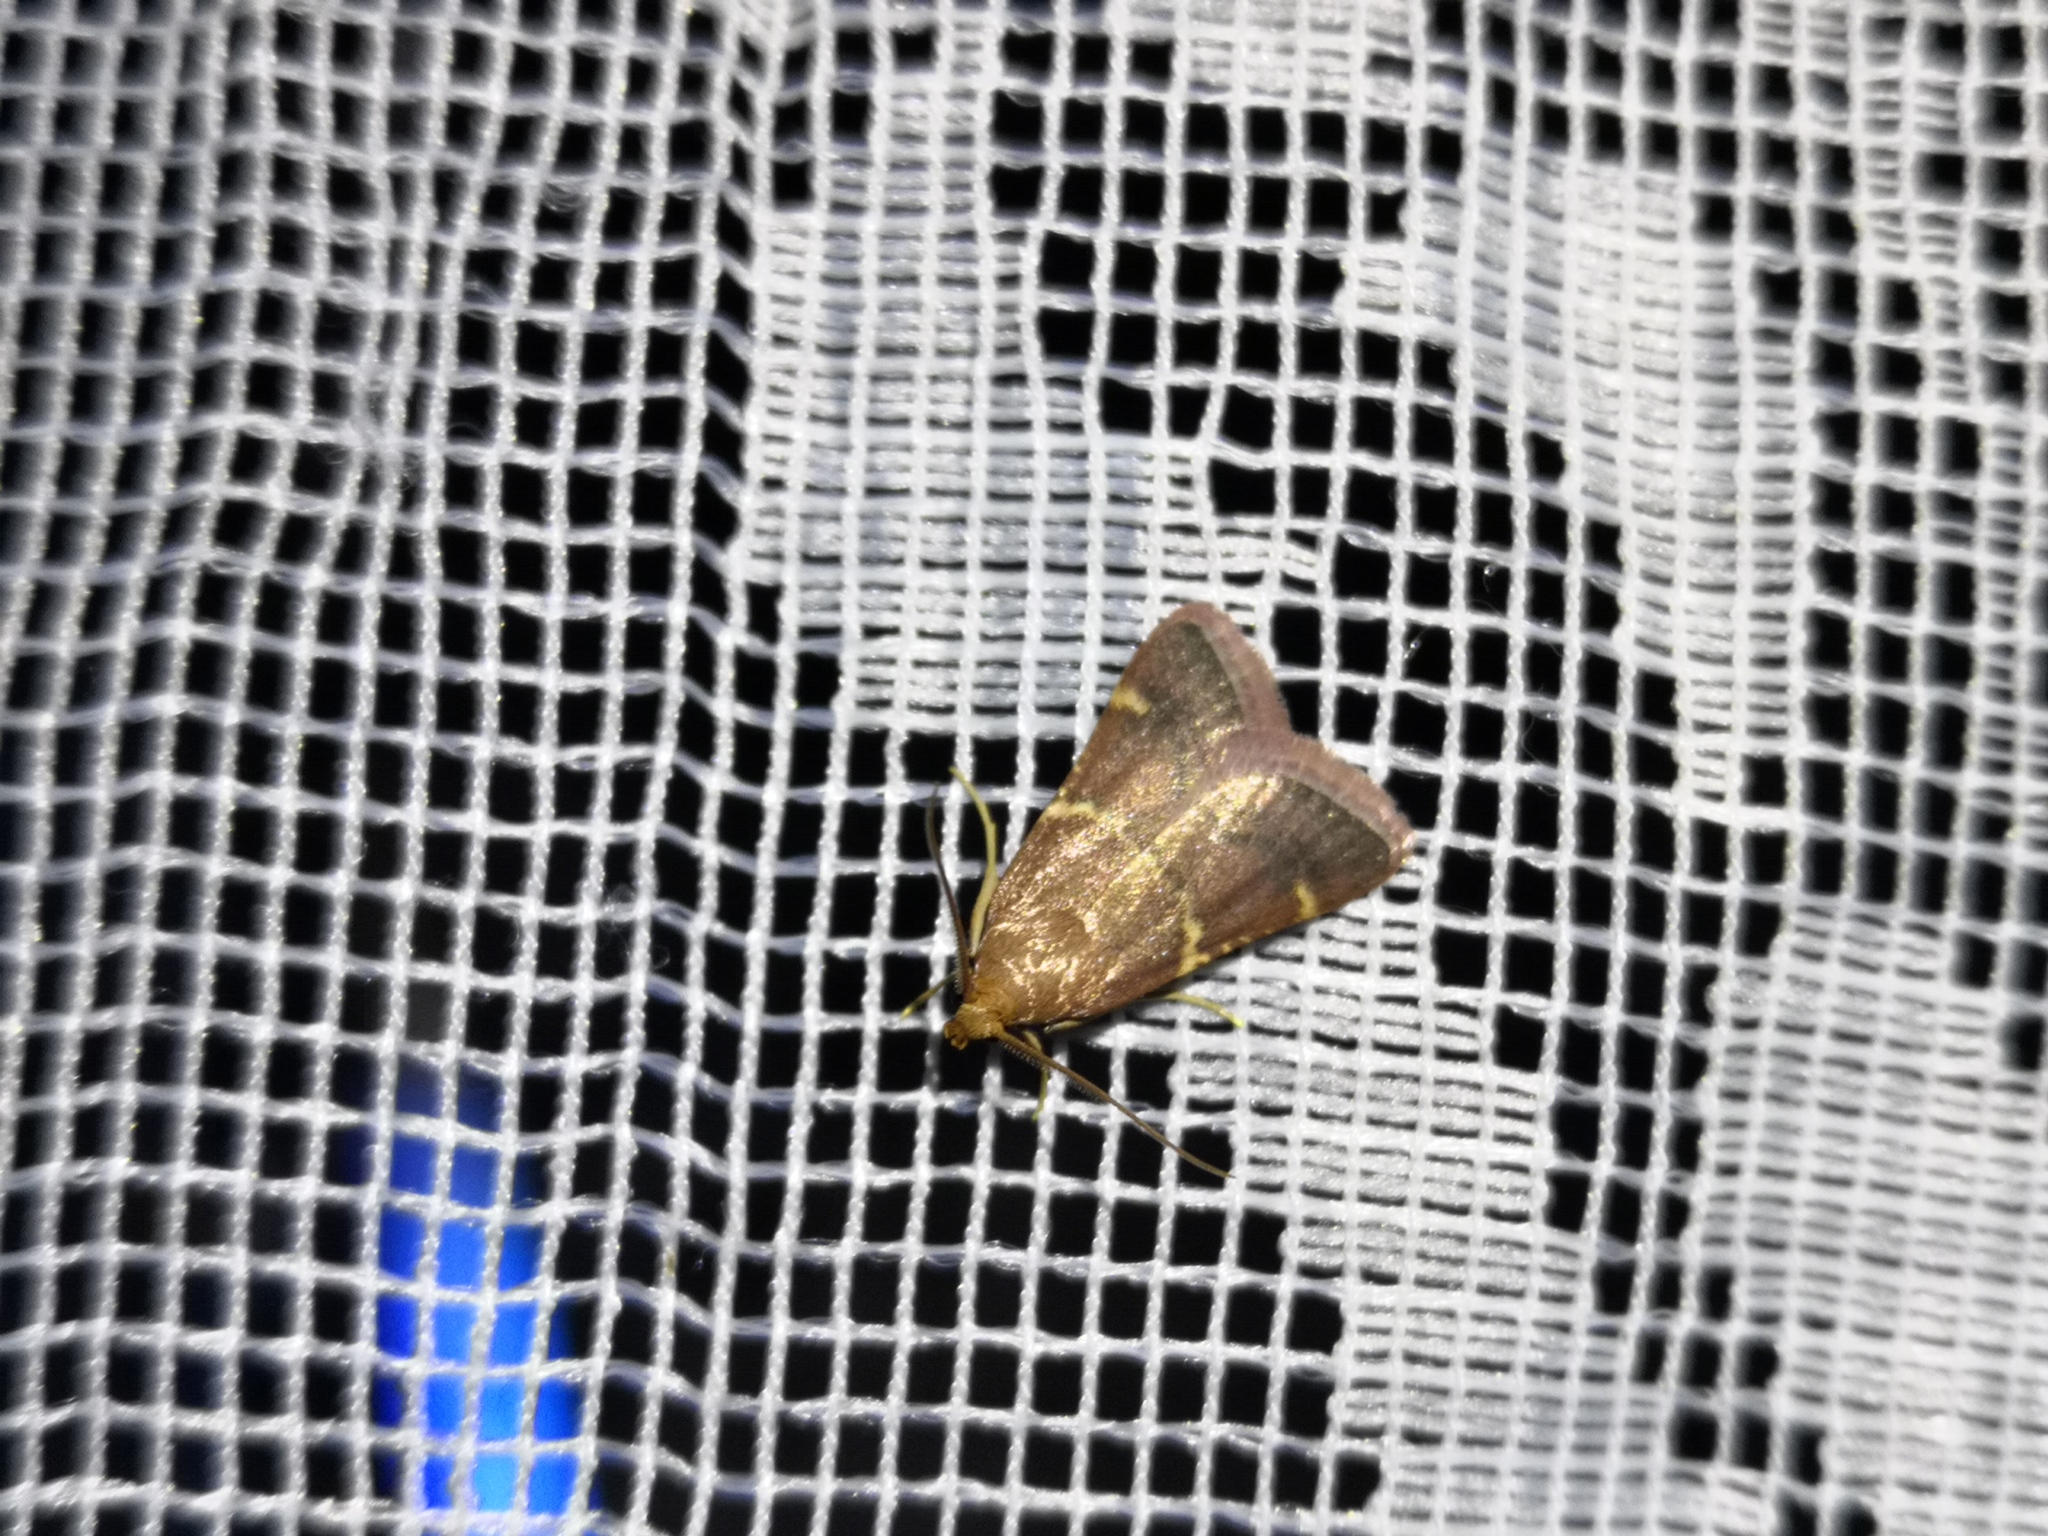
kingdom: Animalia
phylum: Arthropoda
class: Insecta
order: Lepidoptera
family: Pyralidae
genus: Pyralis
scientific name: Pyralis perversalis
